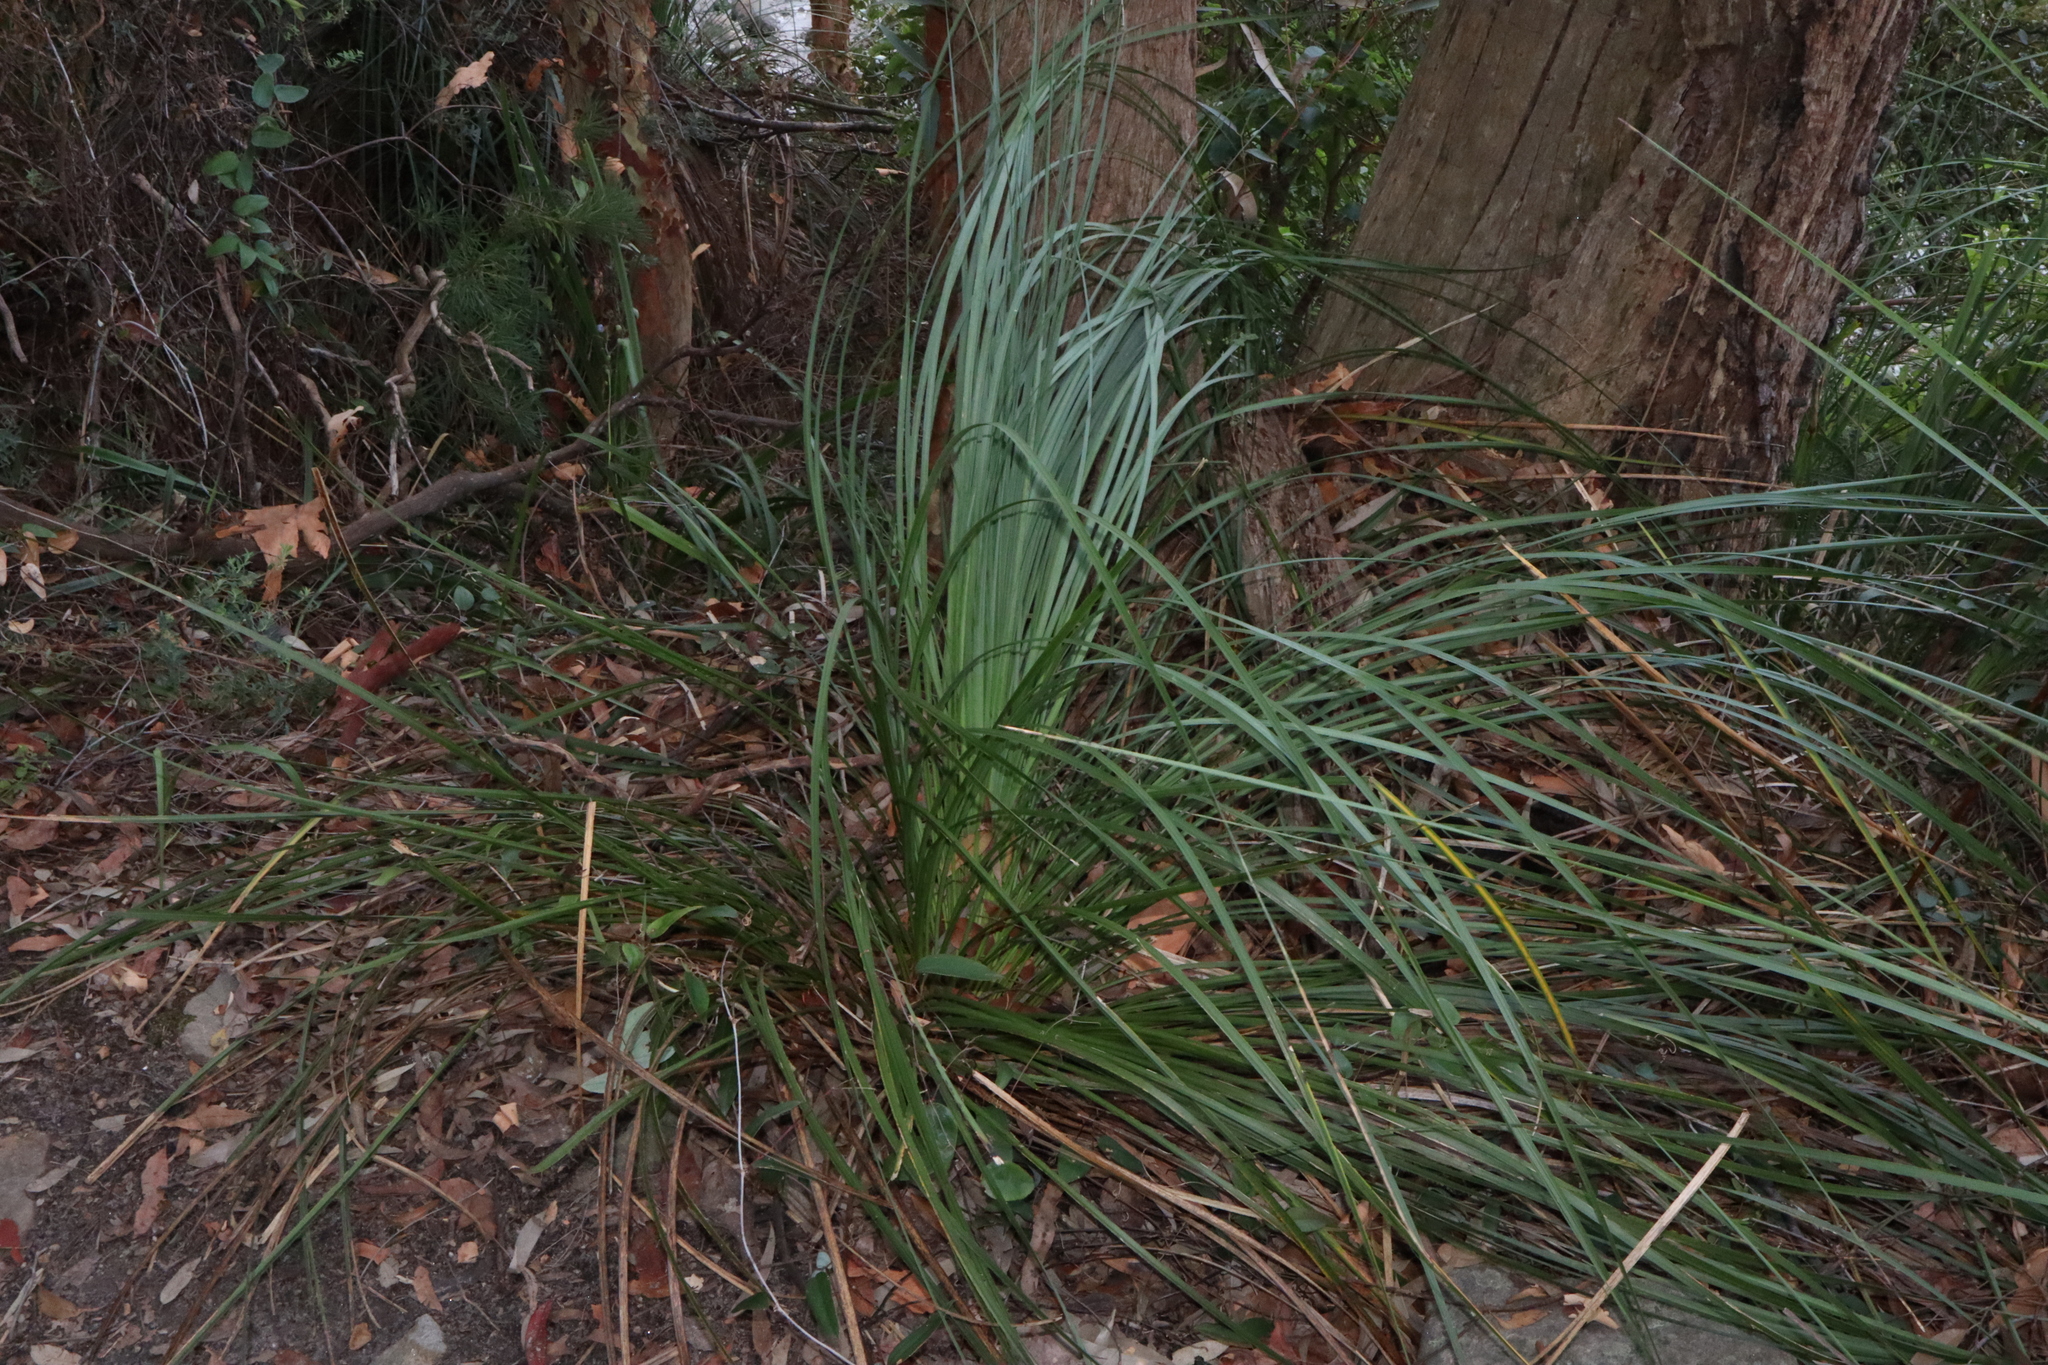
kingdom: Plantae
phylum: Tracheophyta
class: Liliopsida
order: Asparagales
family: Asphodelaceae
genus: Xanthorrhoea
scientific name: Xanthorrhoea arborea
